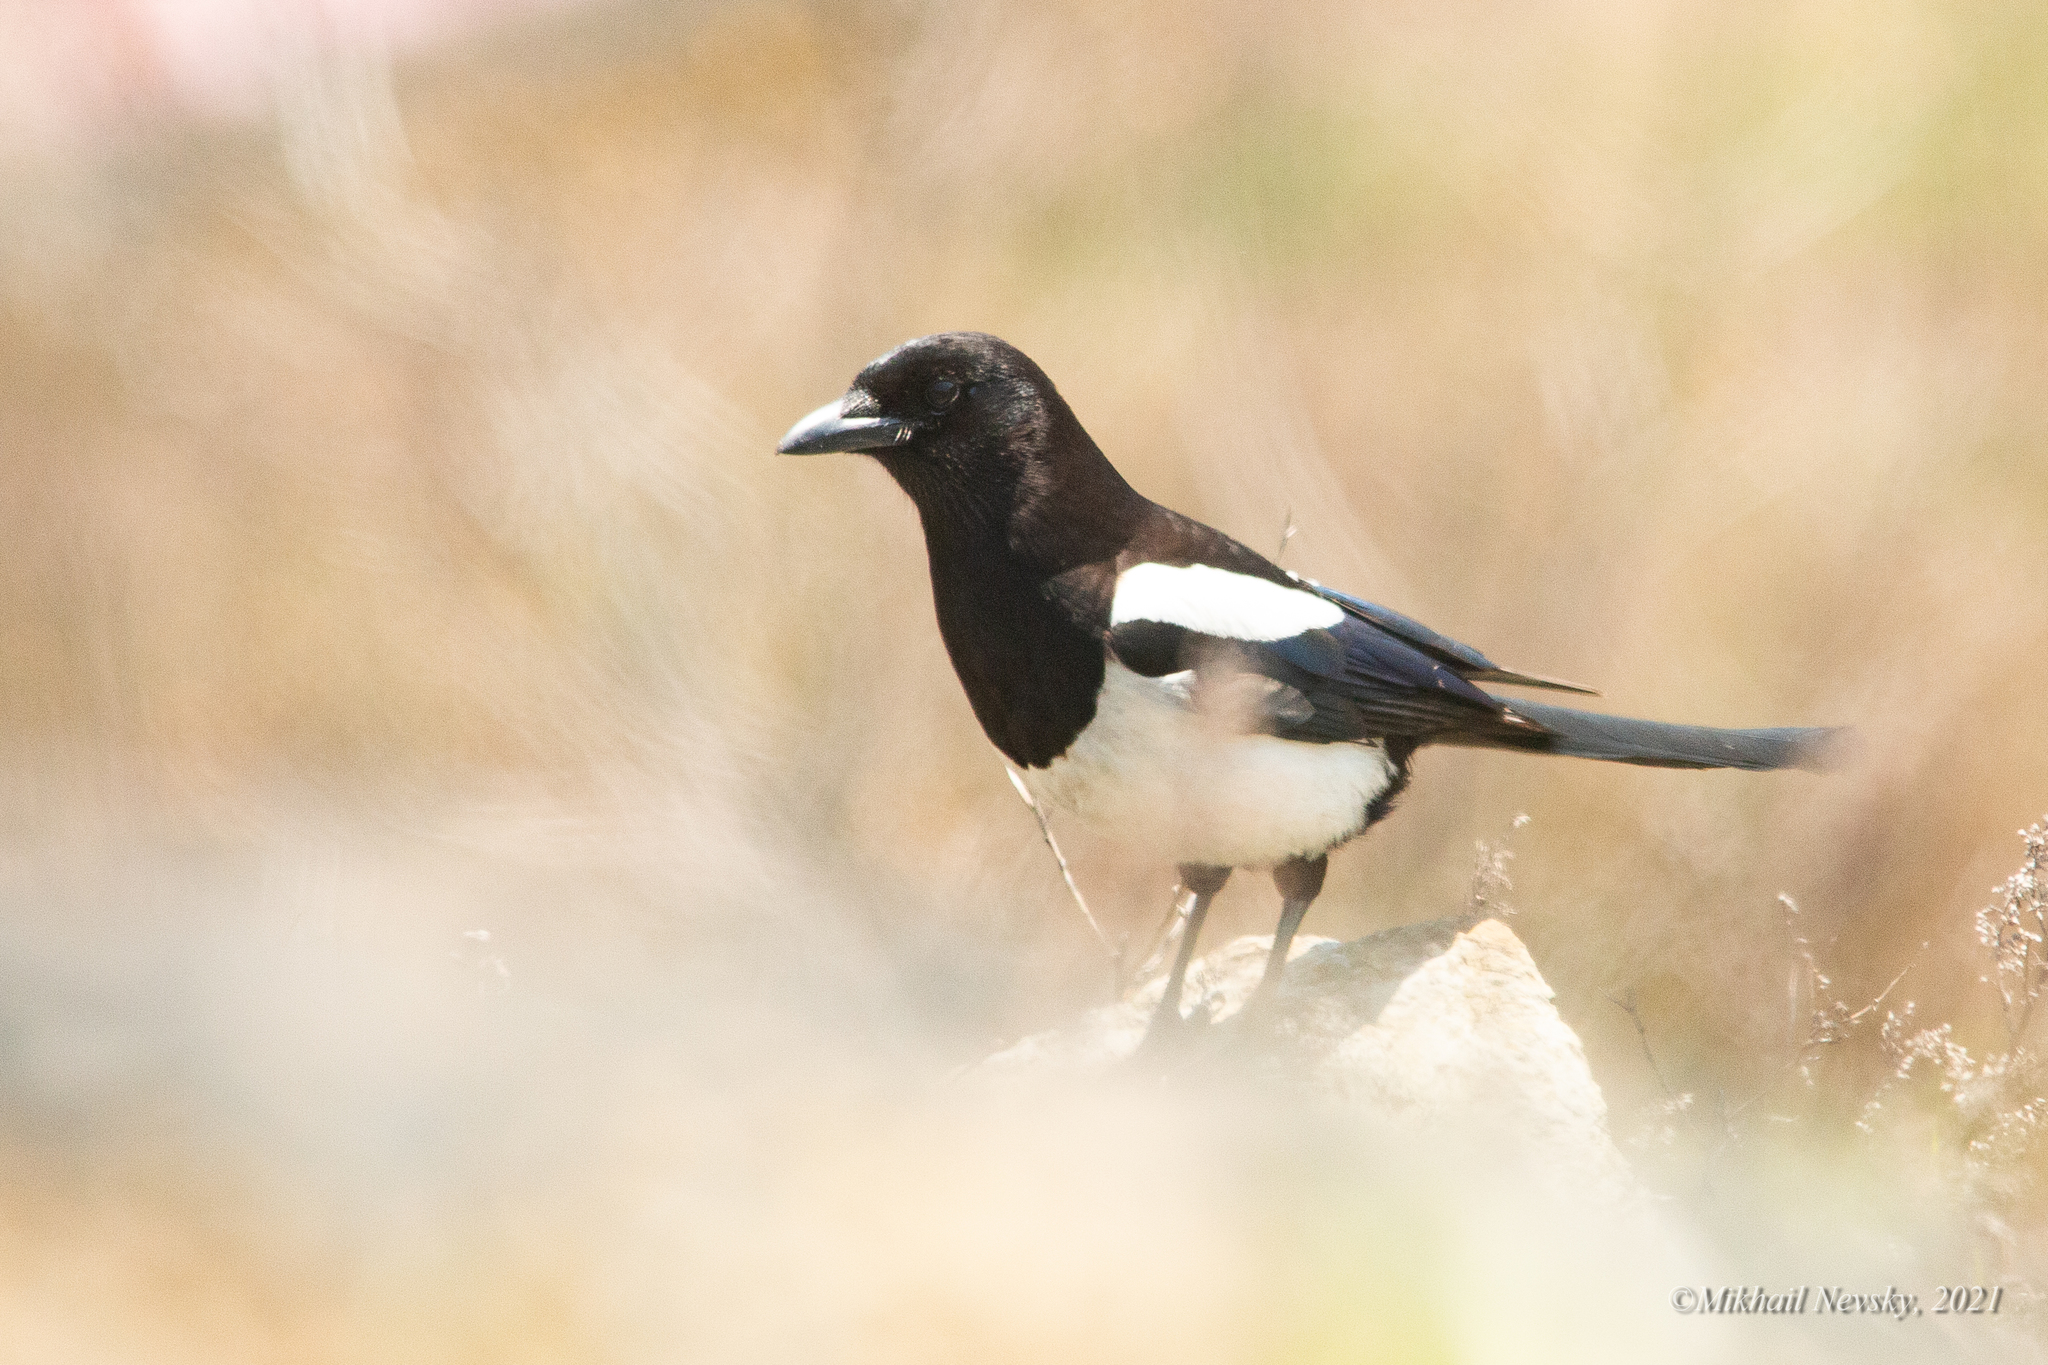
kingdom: Animalia
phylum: Chordata
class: Aves
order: Passeriformes
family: Corvidae
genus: Pica
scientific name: Pica serica
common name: Oriental magpie
